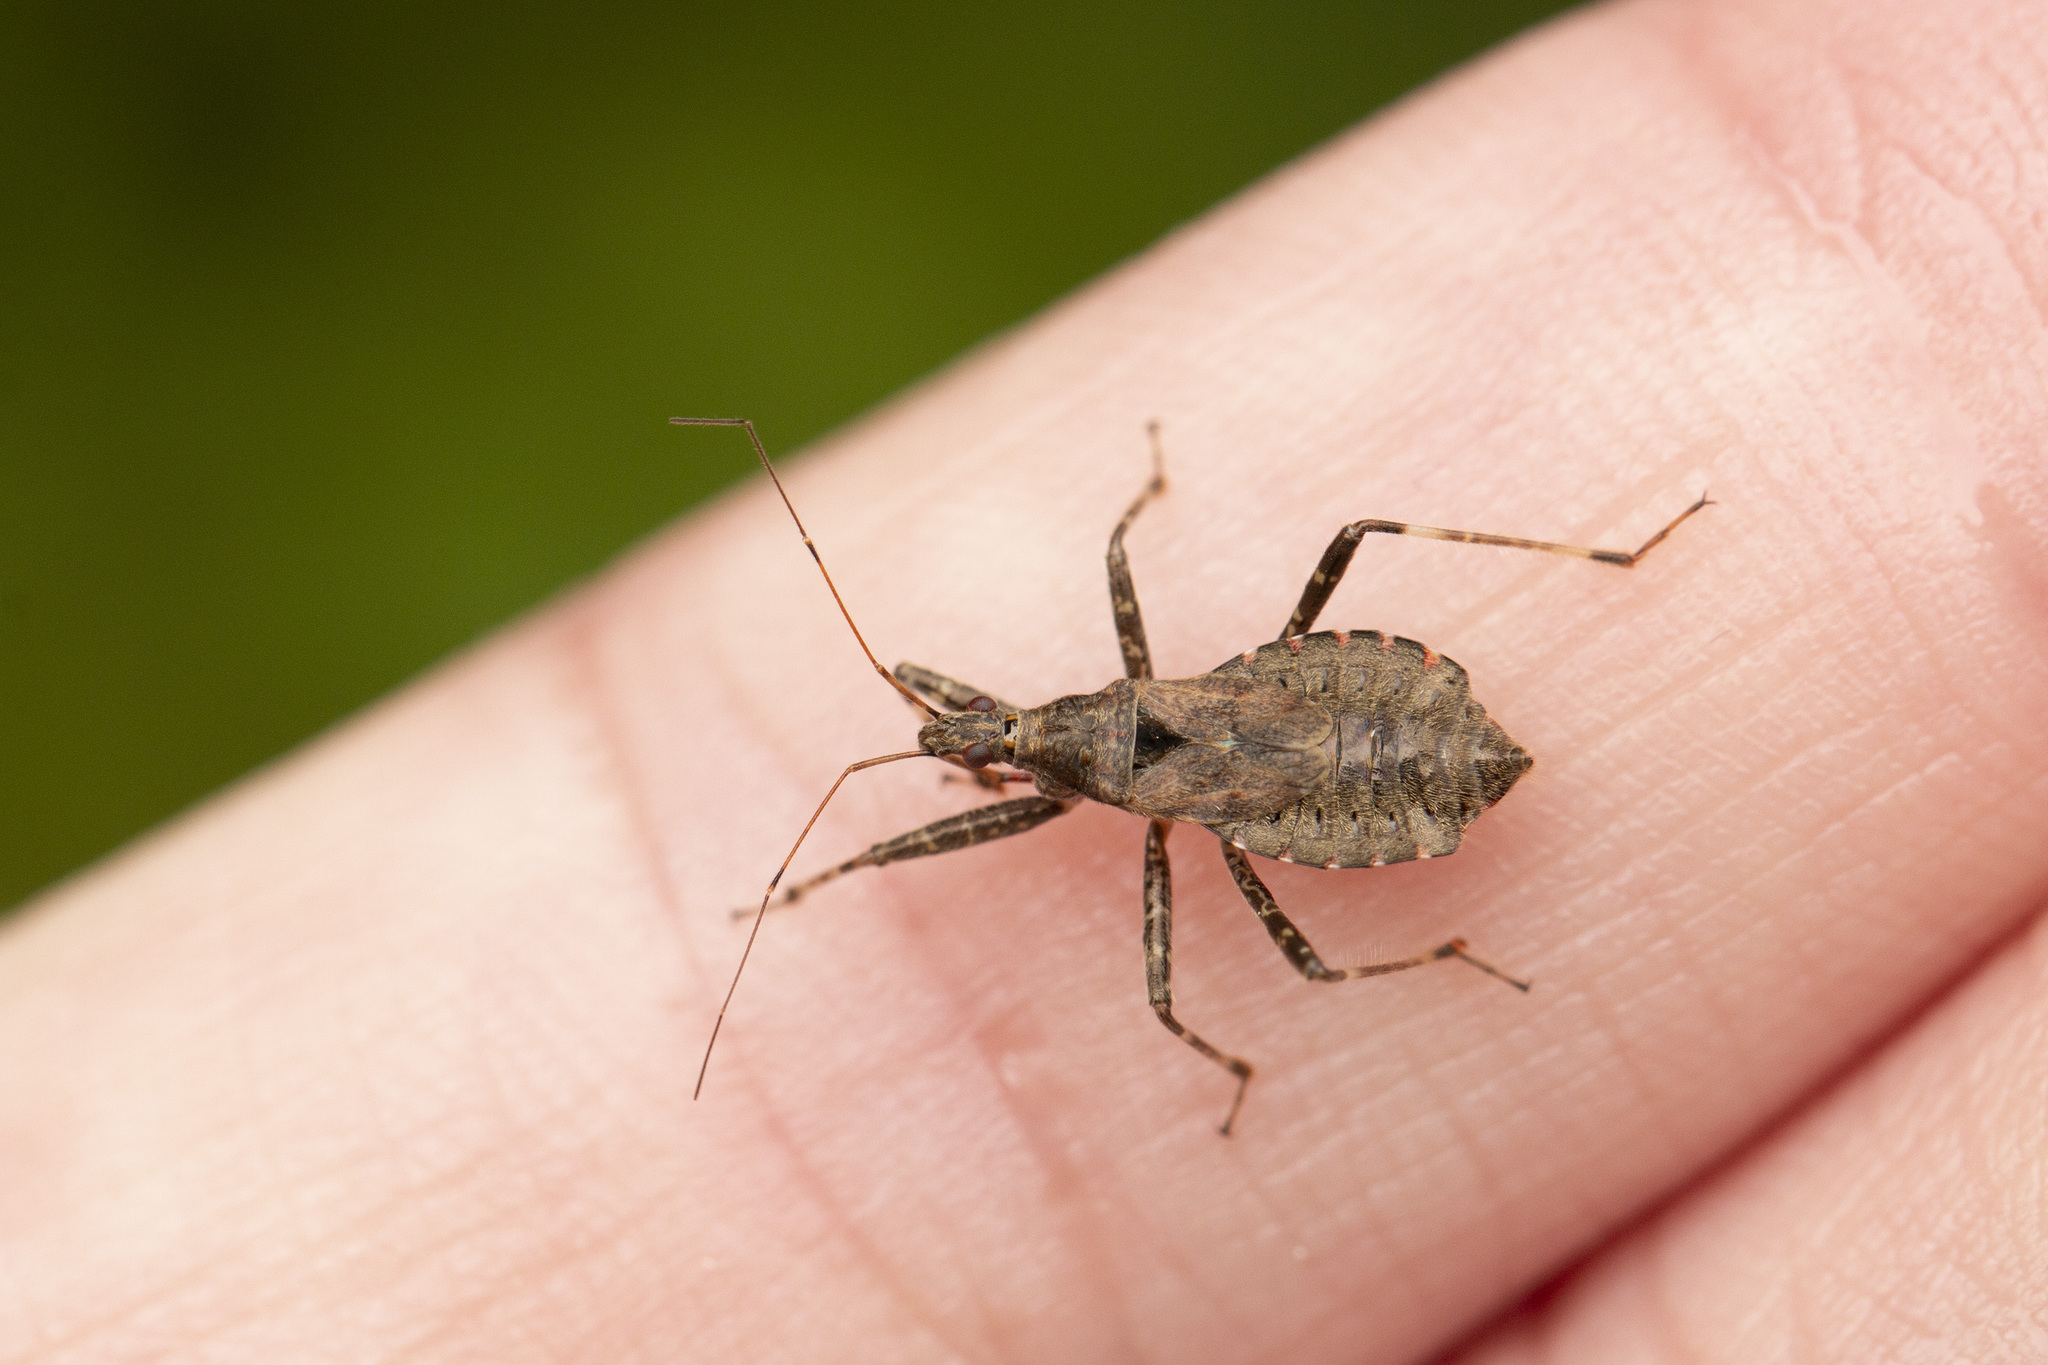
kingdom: Animalia
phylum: Arthropoda
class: Insecta
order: Hemiptera
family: Nabidae
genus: Himacerus
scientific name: Himacerus apterus
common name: Tree damsel bug
